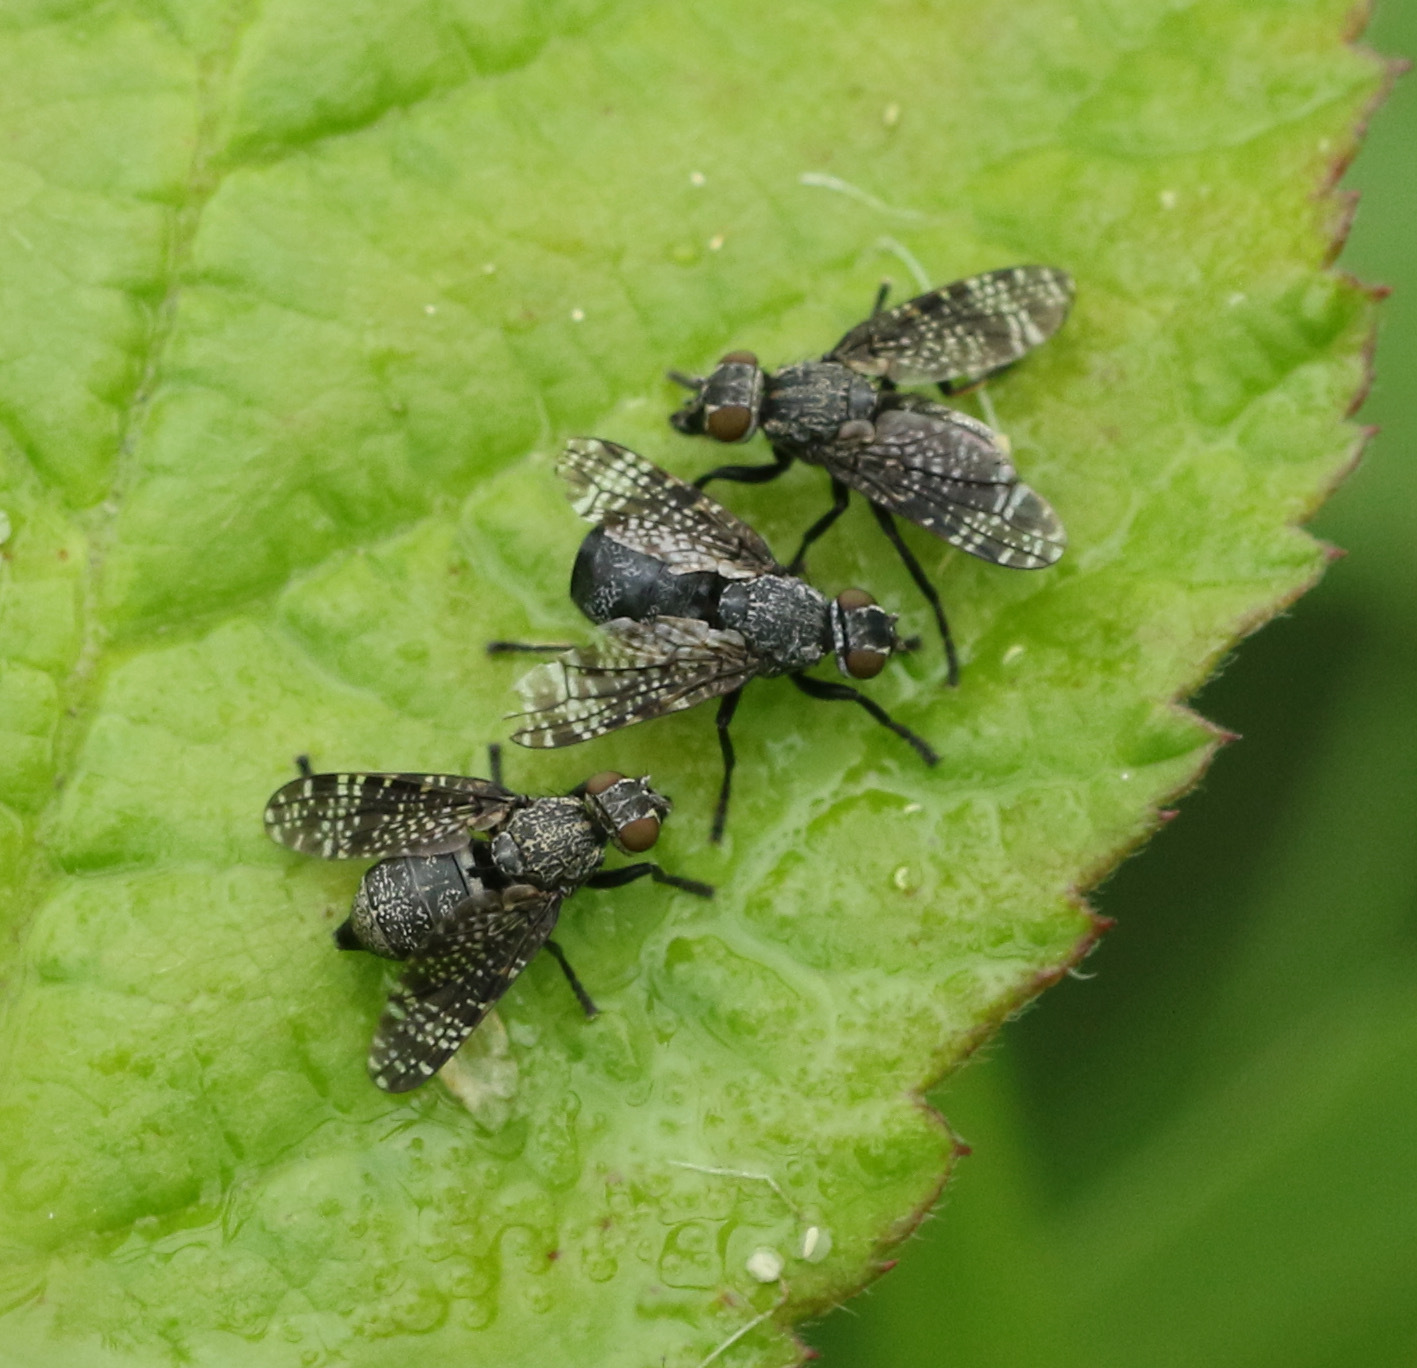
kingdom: Animalia
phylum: Arthropoda
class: Insecta
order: Diptera
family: Platystomatidae
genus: Platystoma
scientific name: Platystoma seminationis
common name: Fly
